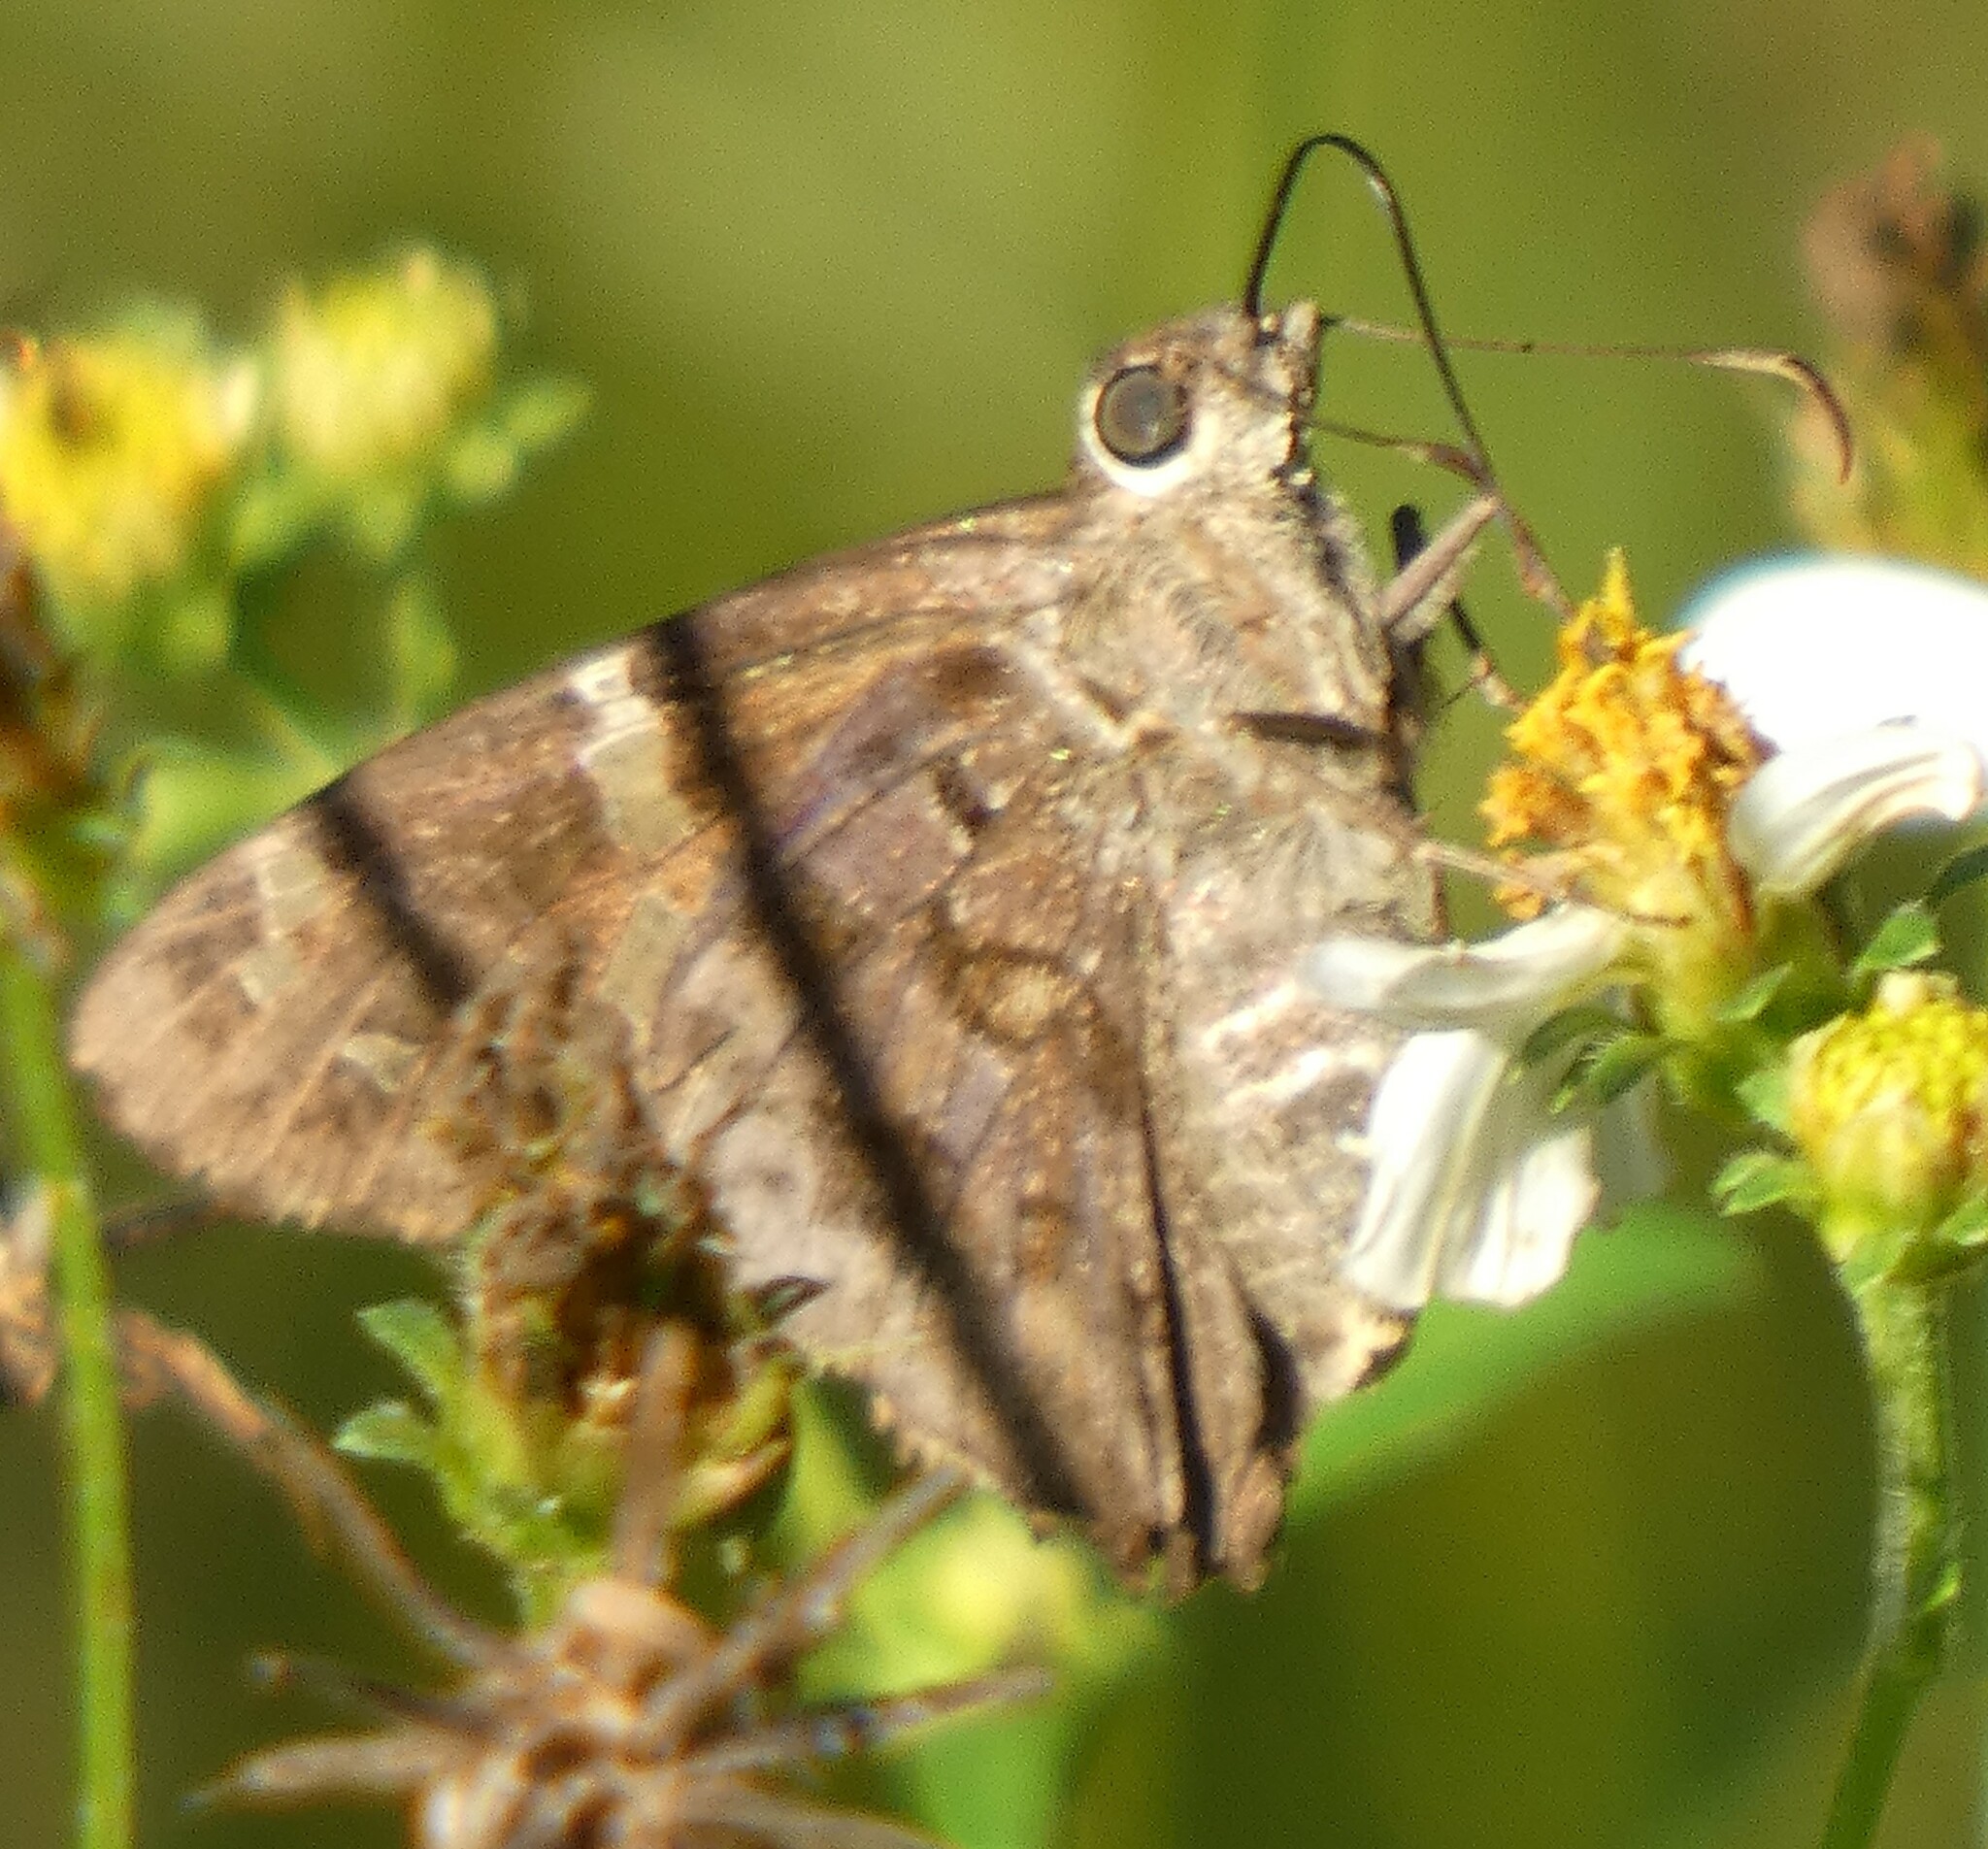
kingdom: Animalia
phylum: Arthropoda
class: Insecta
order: Lepidoptera
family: Hesperiidae
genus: Thorybes
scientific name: Thorybes
